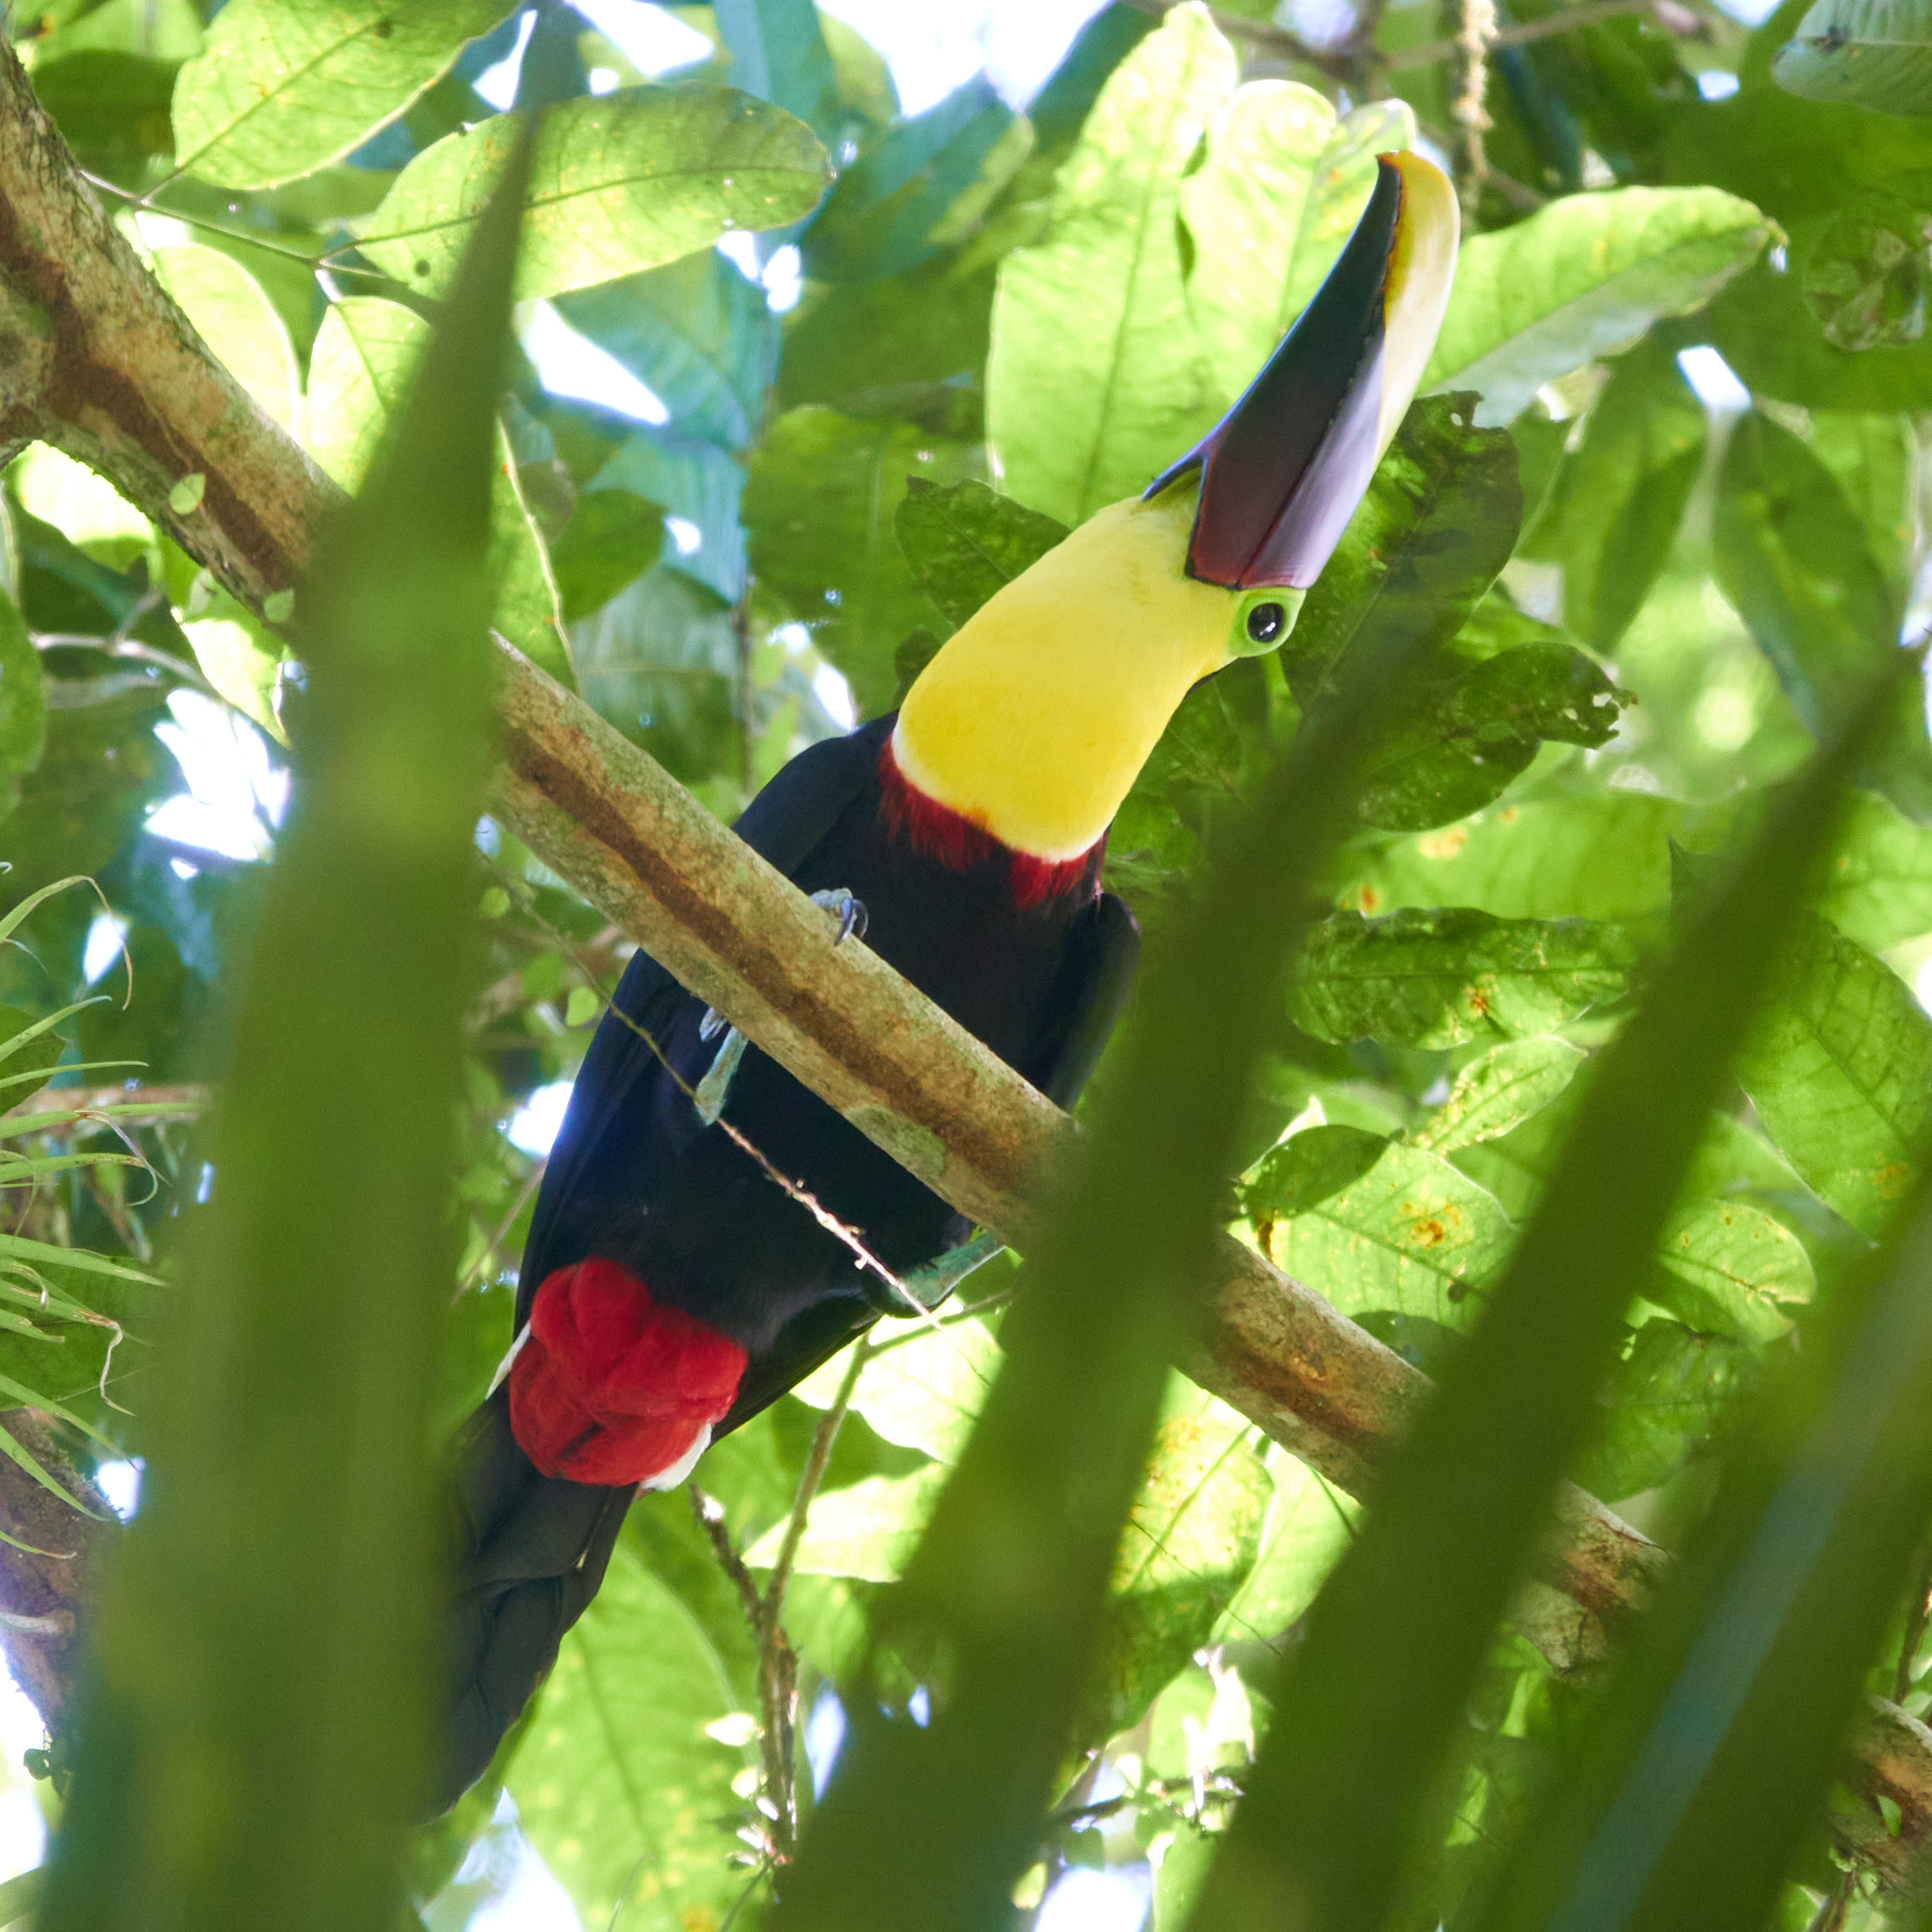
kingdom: Animalia
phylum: Chordata
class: Aves
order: Piciformes
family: Ramphastidae
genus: Ramphastos
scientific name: Ramphastos ambiguus
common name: Yellow-throated toucan
